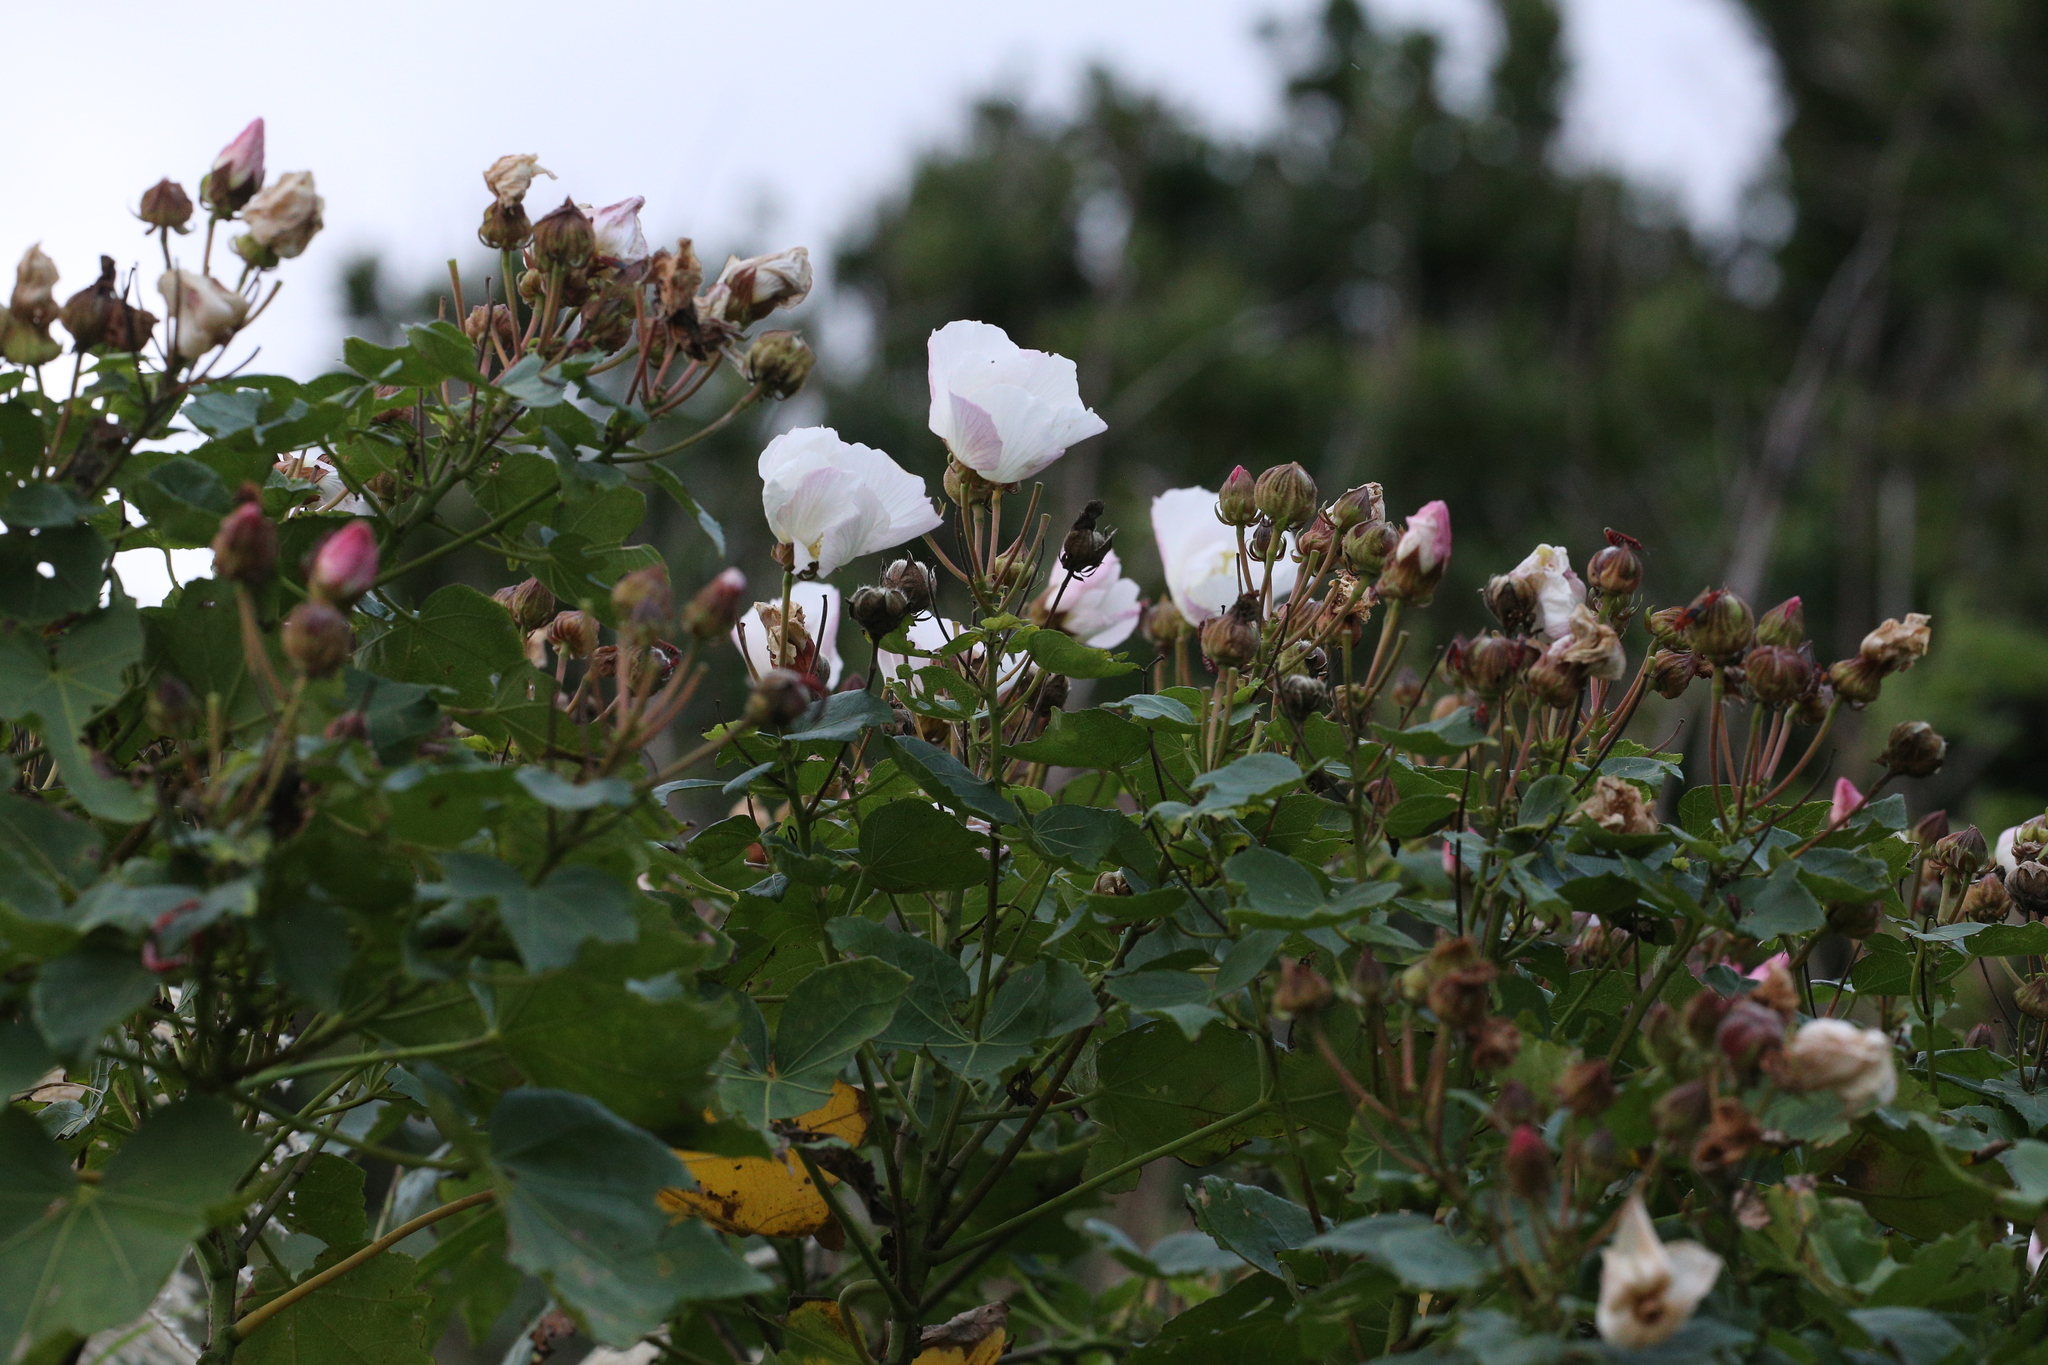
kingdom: Plantae
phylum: Tracheophyta
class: Magnoliopsida
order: Malvales
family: Malvaceae
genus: Hibiscus
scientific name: Hibiscus makinoi
